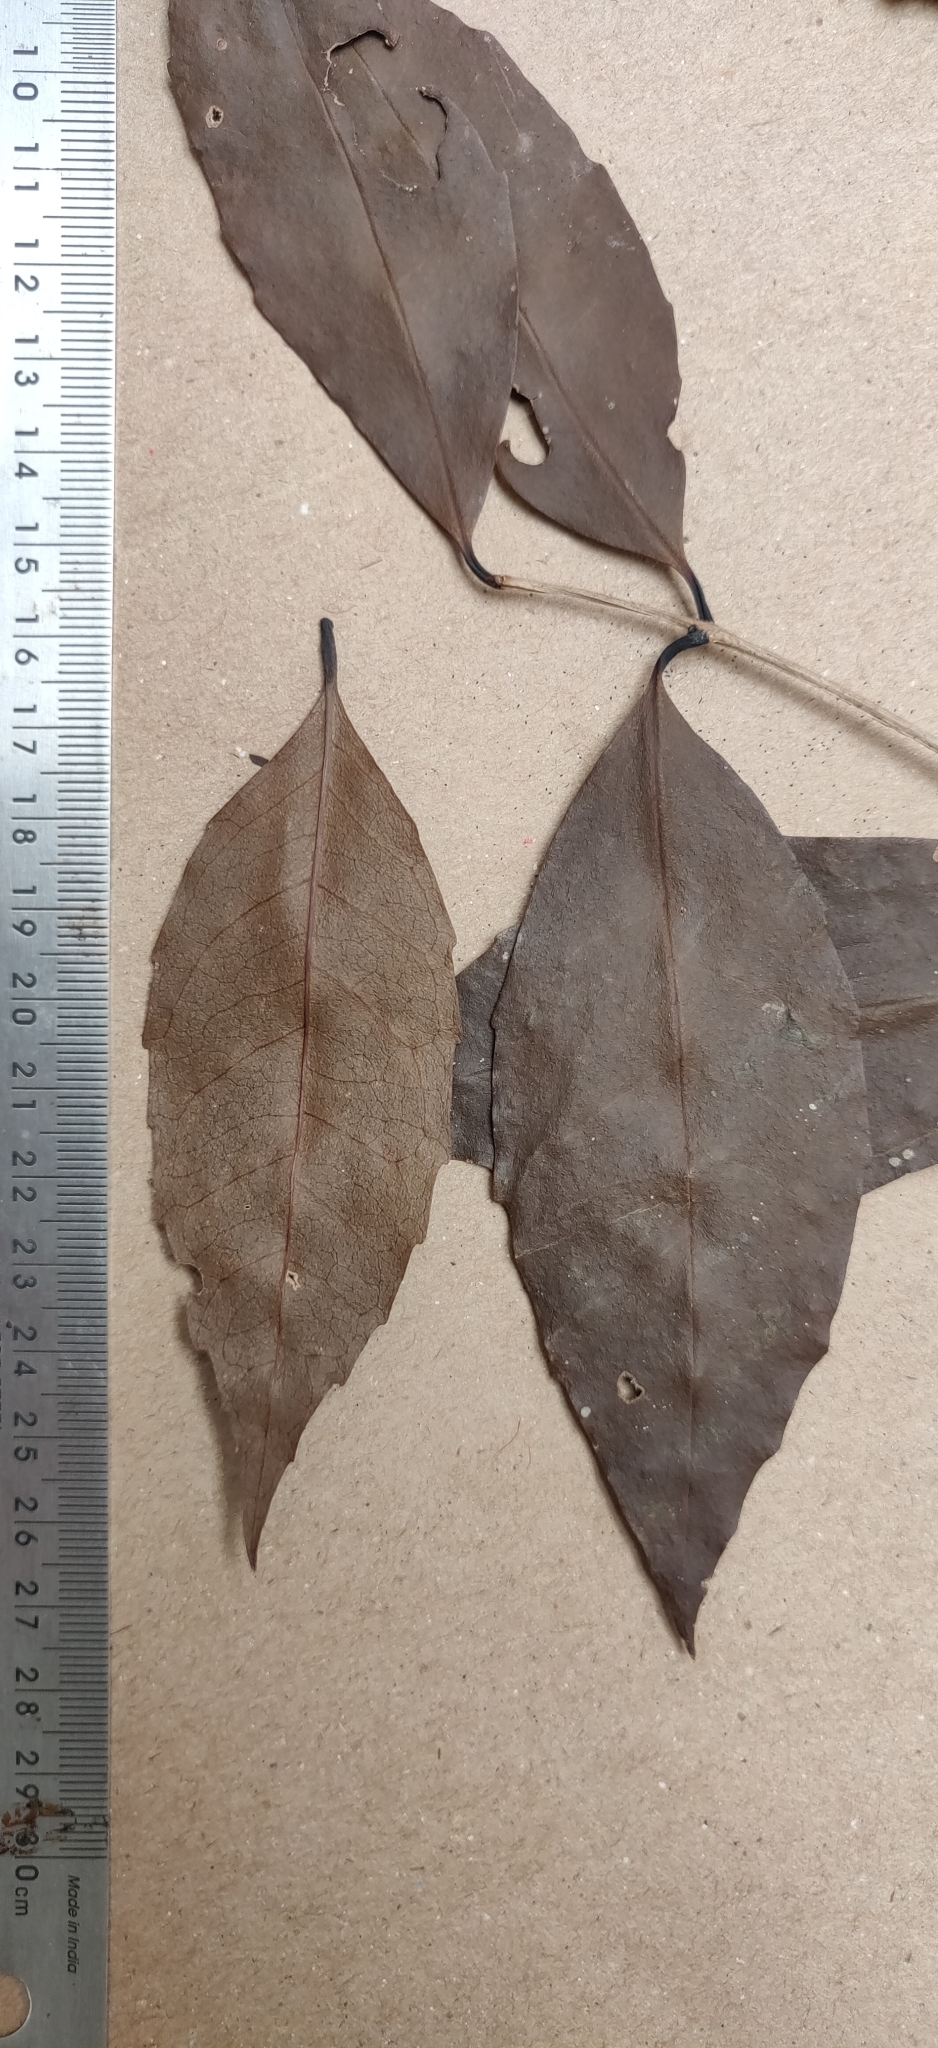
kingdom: Plantae
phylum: Tracheophyta
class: Magnoliopsida
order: Lamiales
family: Oleaceae
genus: Tetrapilus
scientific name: Tetrapilus dioicus
